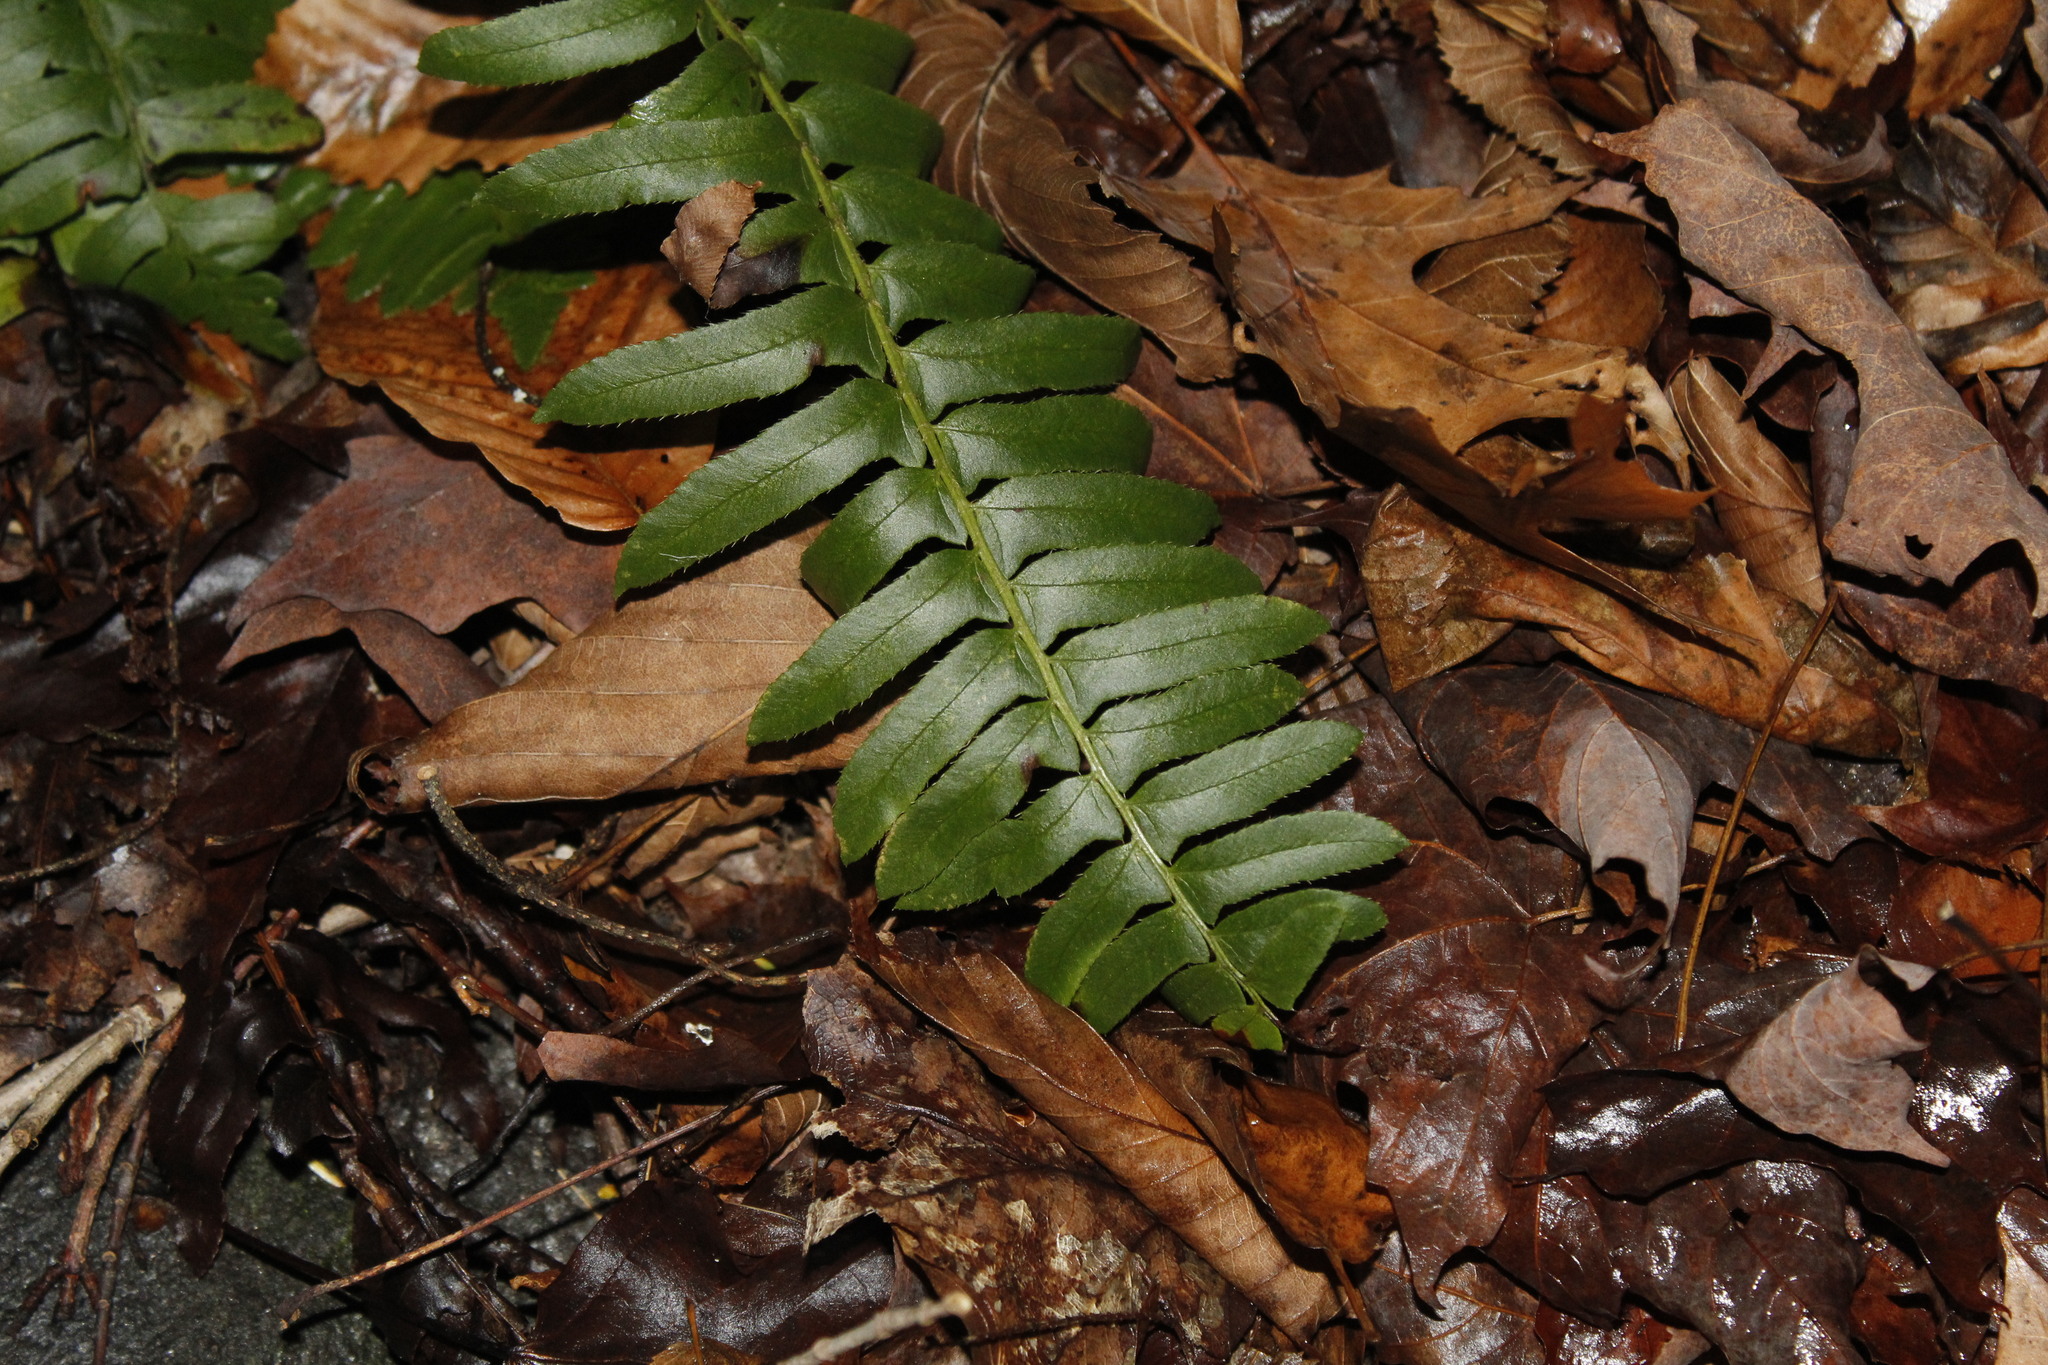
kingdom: Plantae
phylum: Tracheophyta
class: Polypodiopsida
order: Polypodiales
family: Dryopteridaceae
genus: Polystichum
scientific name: Polystichum acrostichoides
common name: Christmas fern
